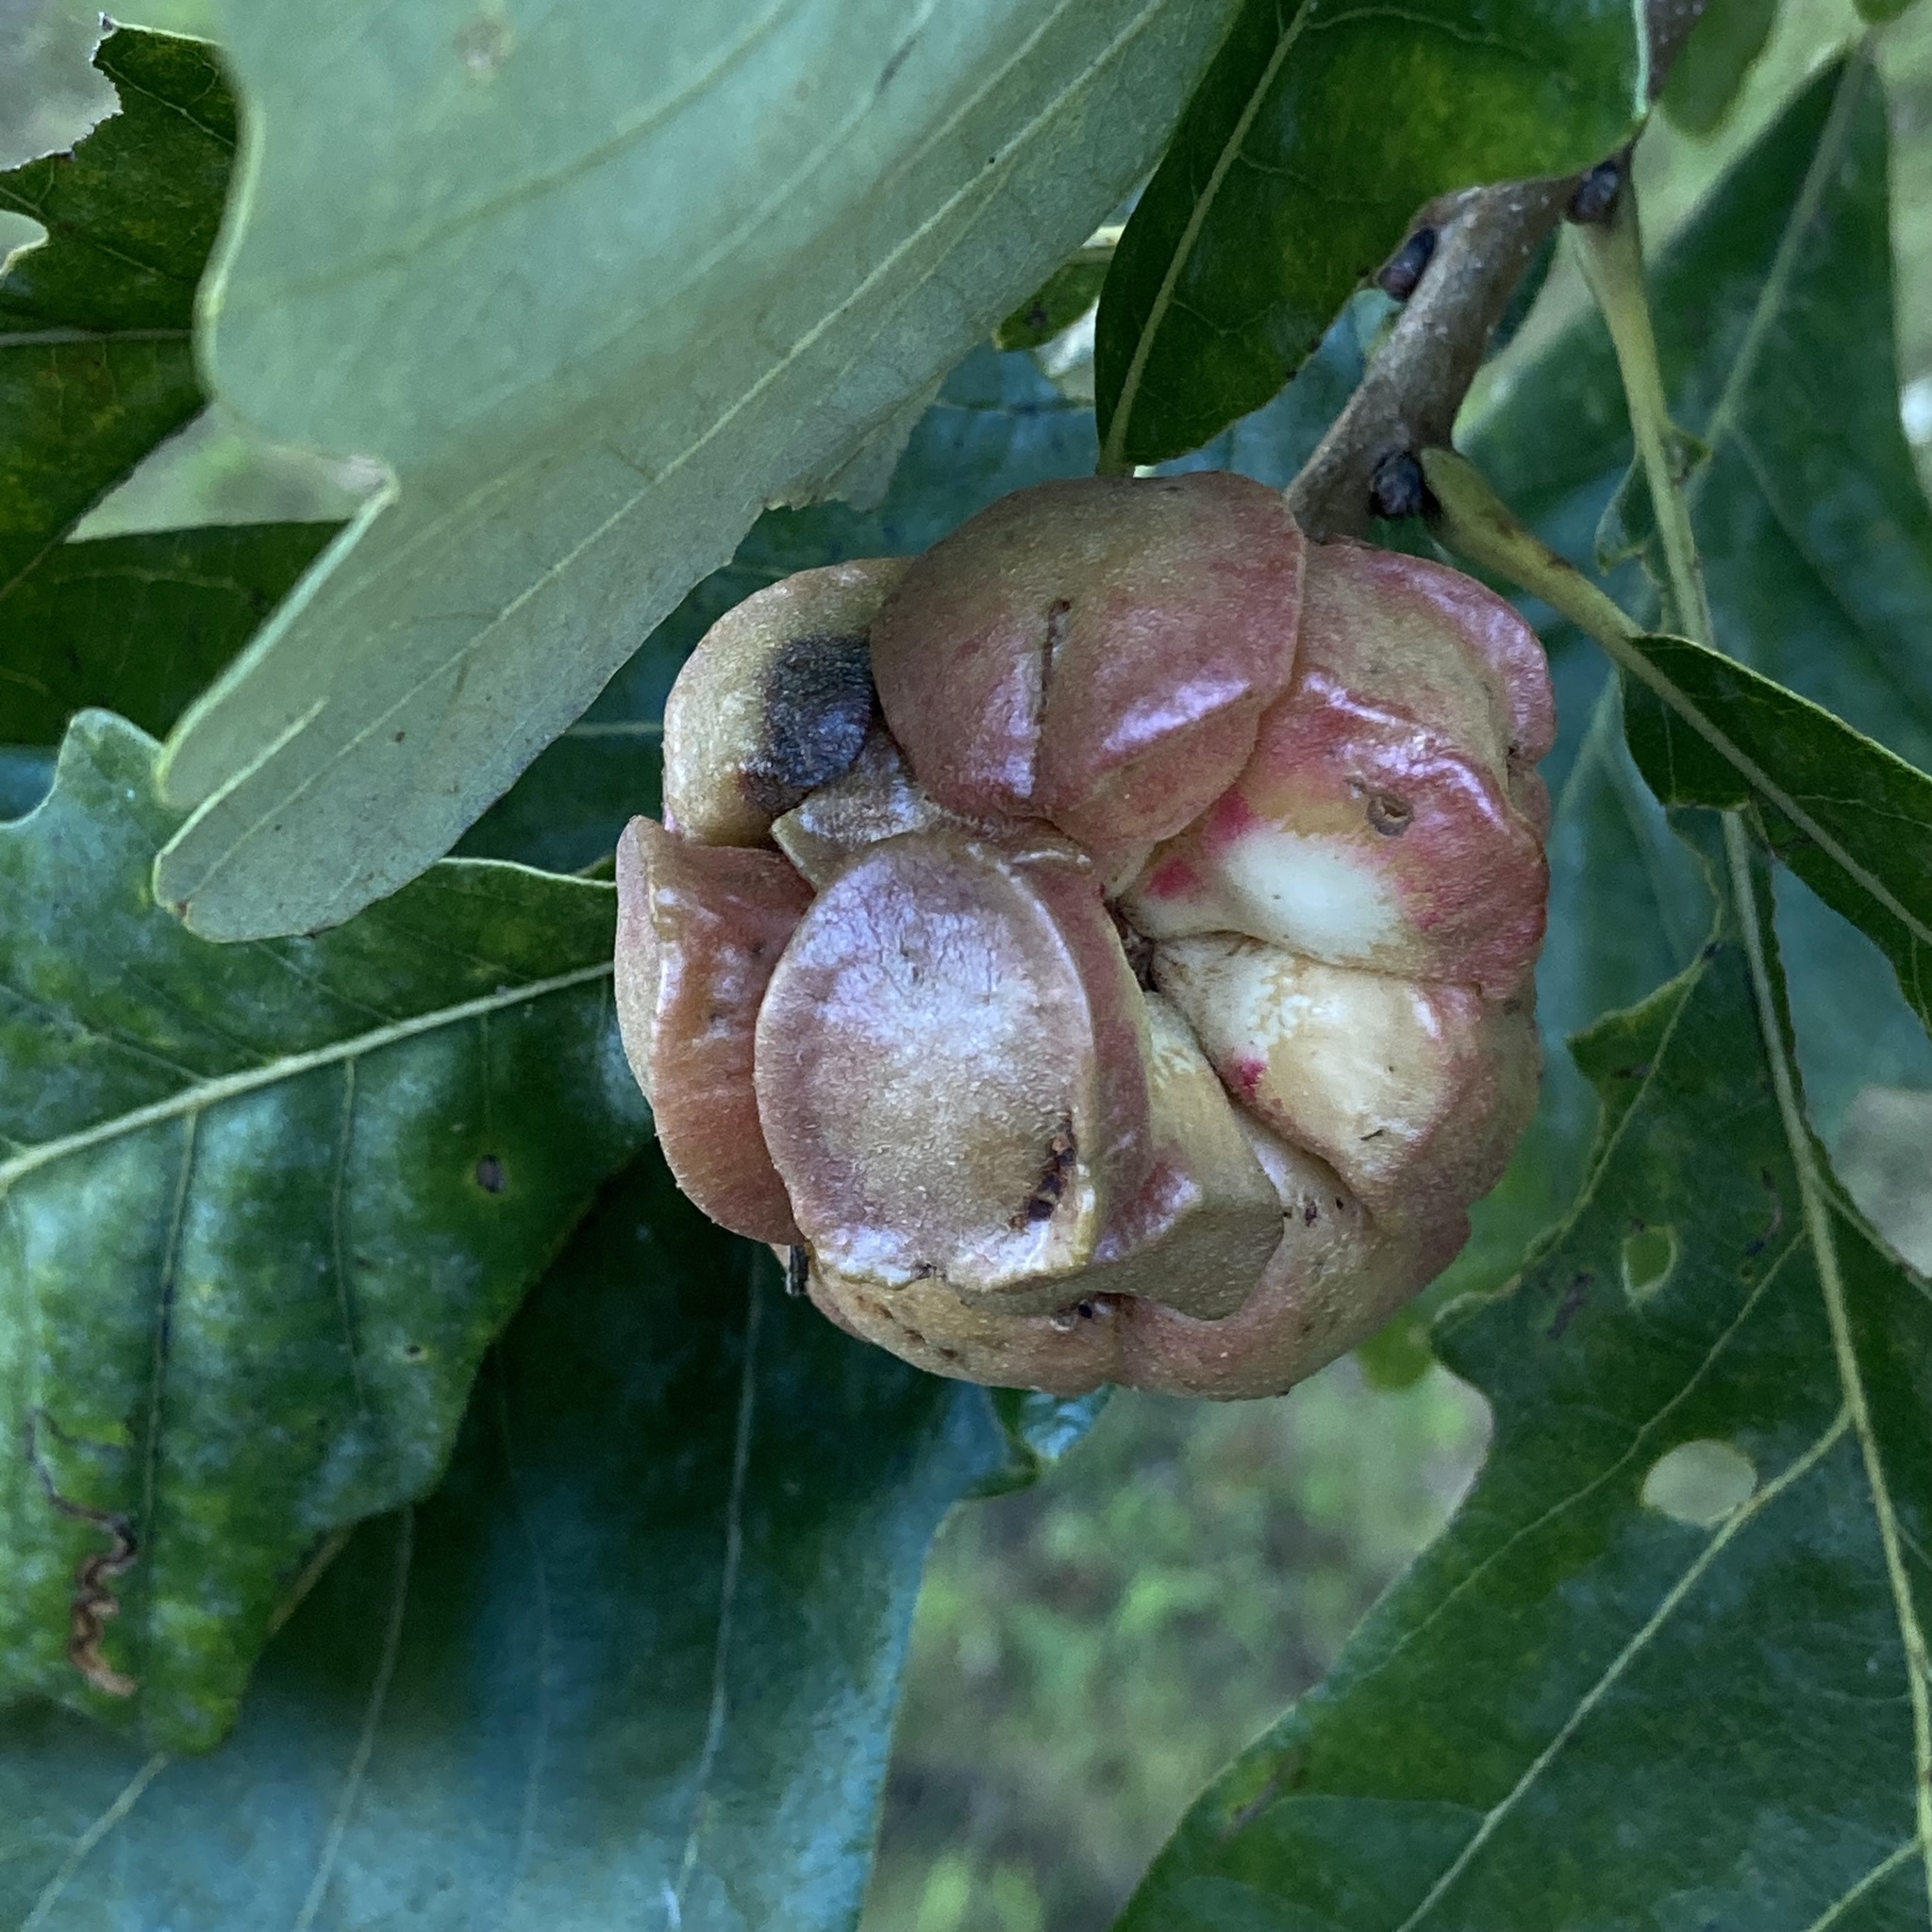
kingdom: Animalia
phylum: Arthropoda
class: Insecta
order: Hymenoptera
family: Cynipidae
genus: Andricus
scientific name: Andricus
